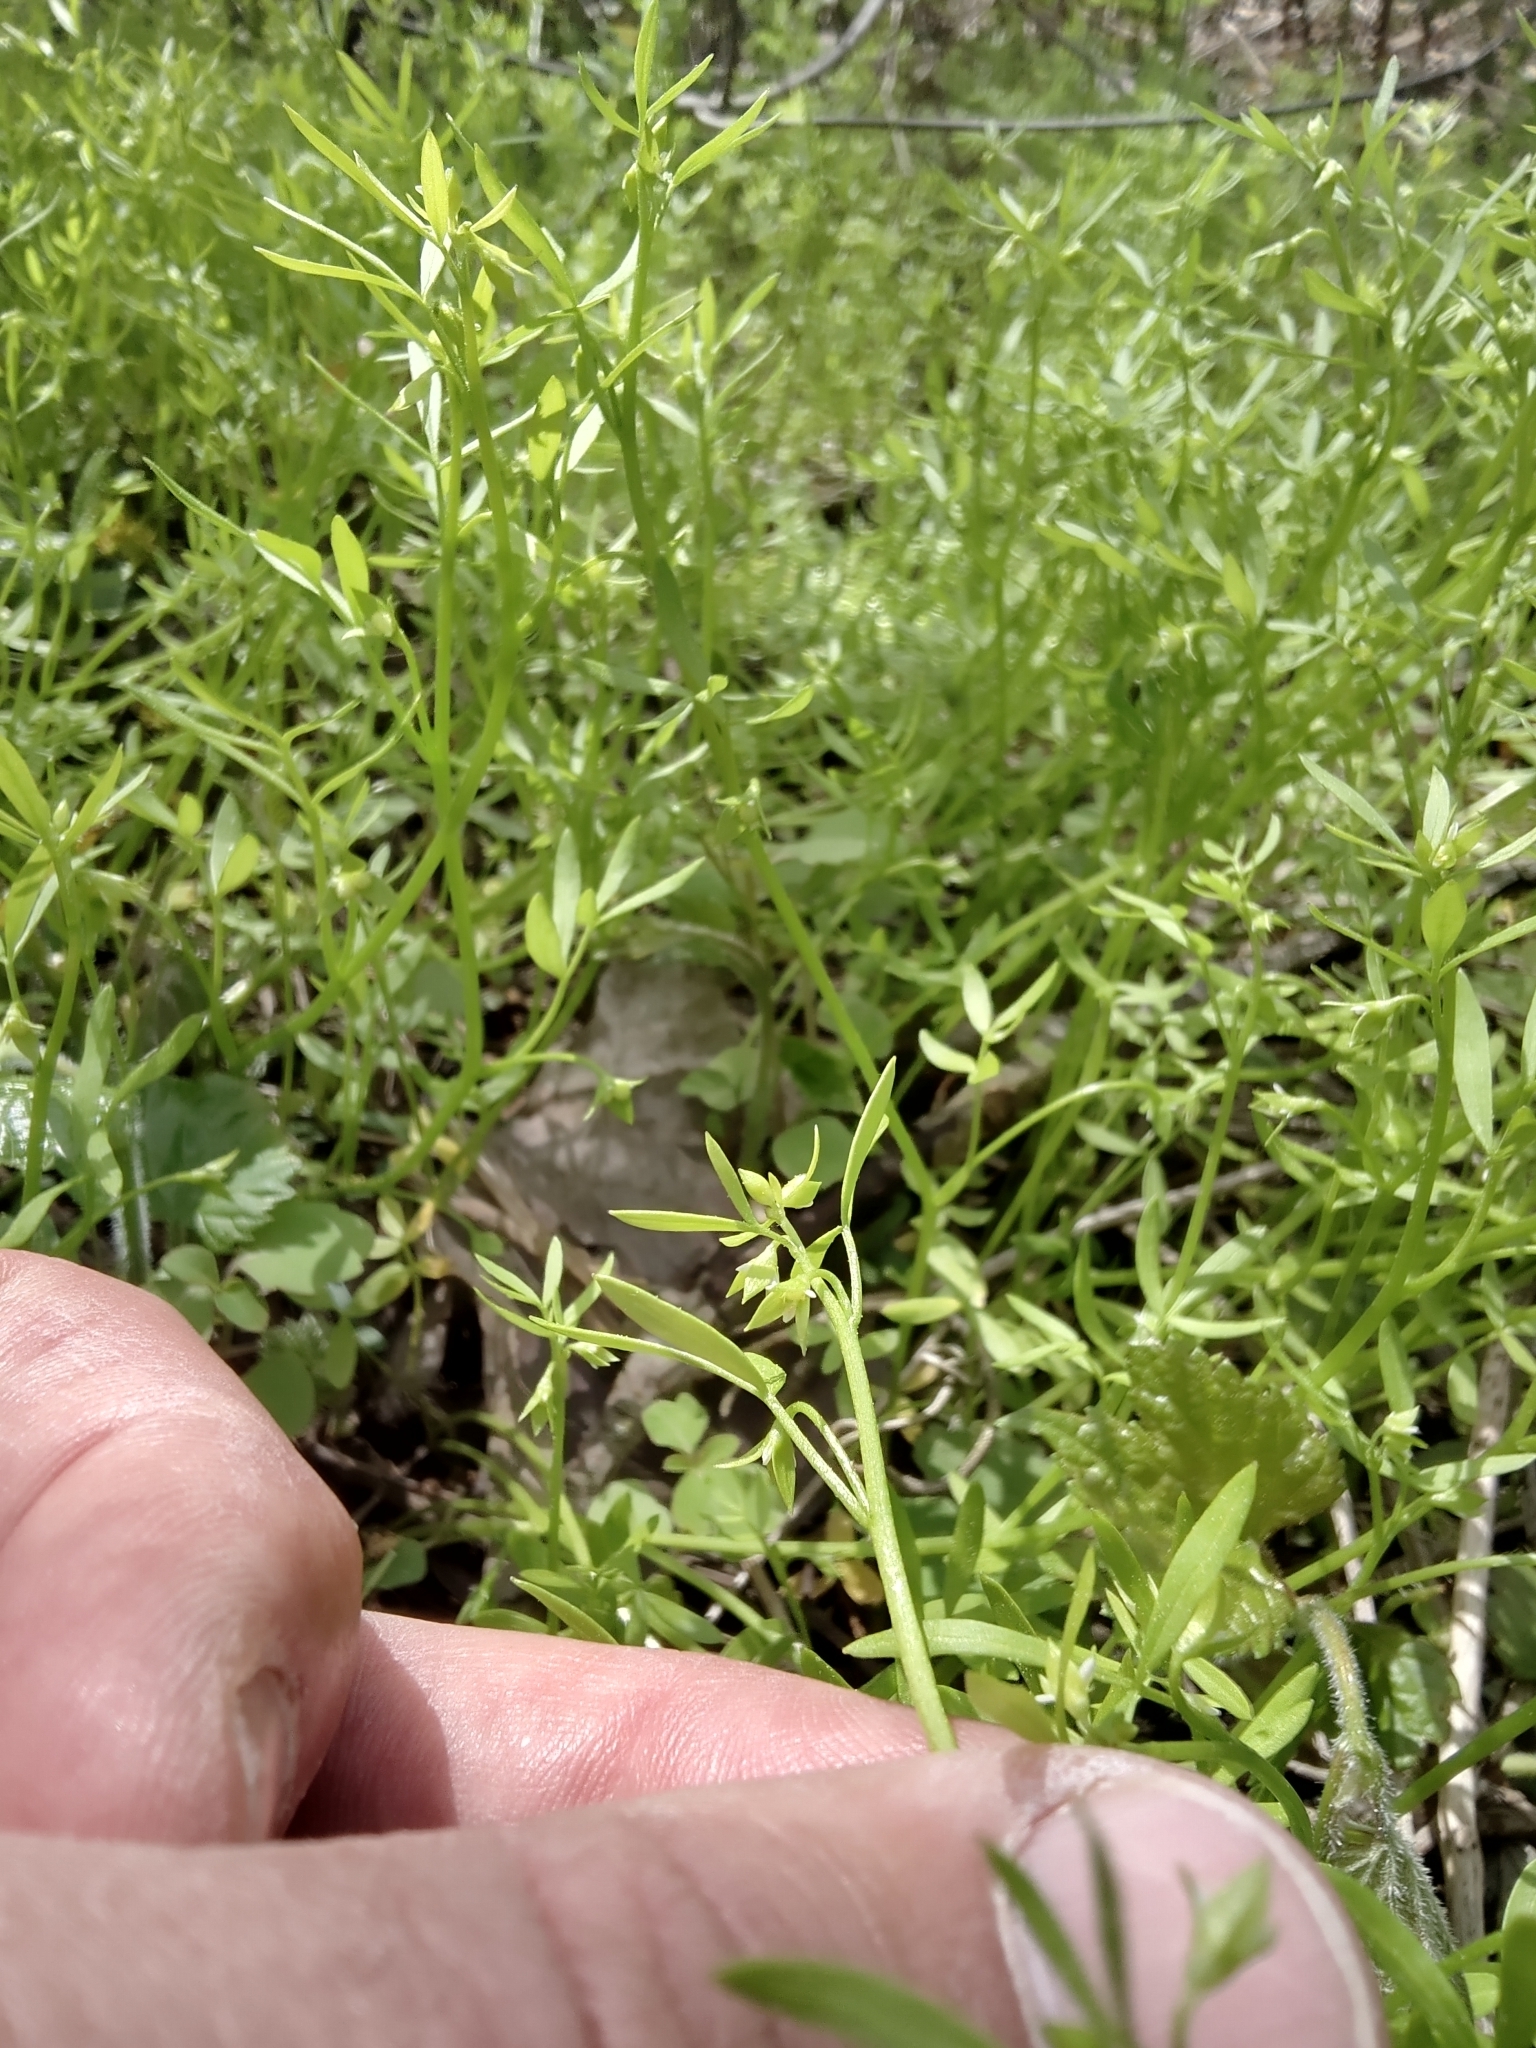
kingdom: Plantae
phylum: Tracheophyta
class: Magnoliopsida
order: Brassicales
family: Limnanthaceae
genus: Floerkea
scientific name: Floerkea proserpinacoides
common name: False mermaid
